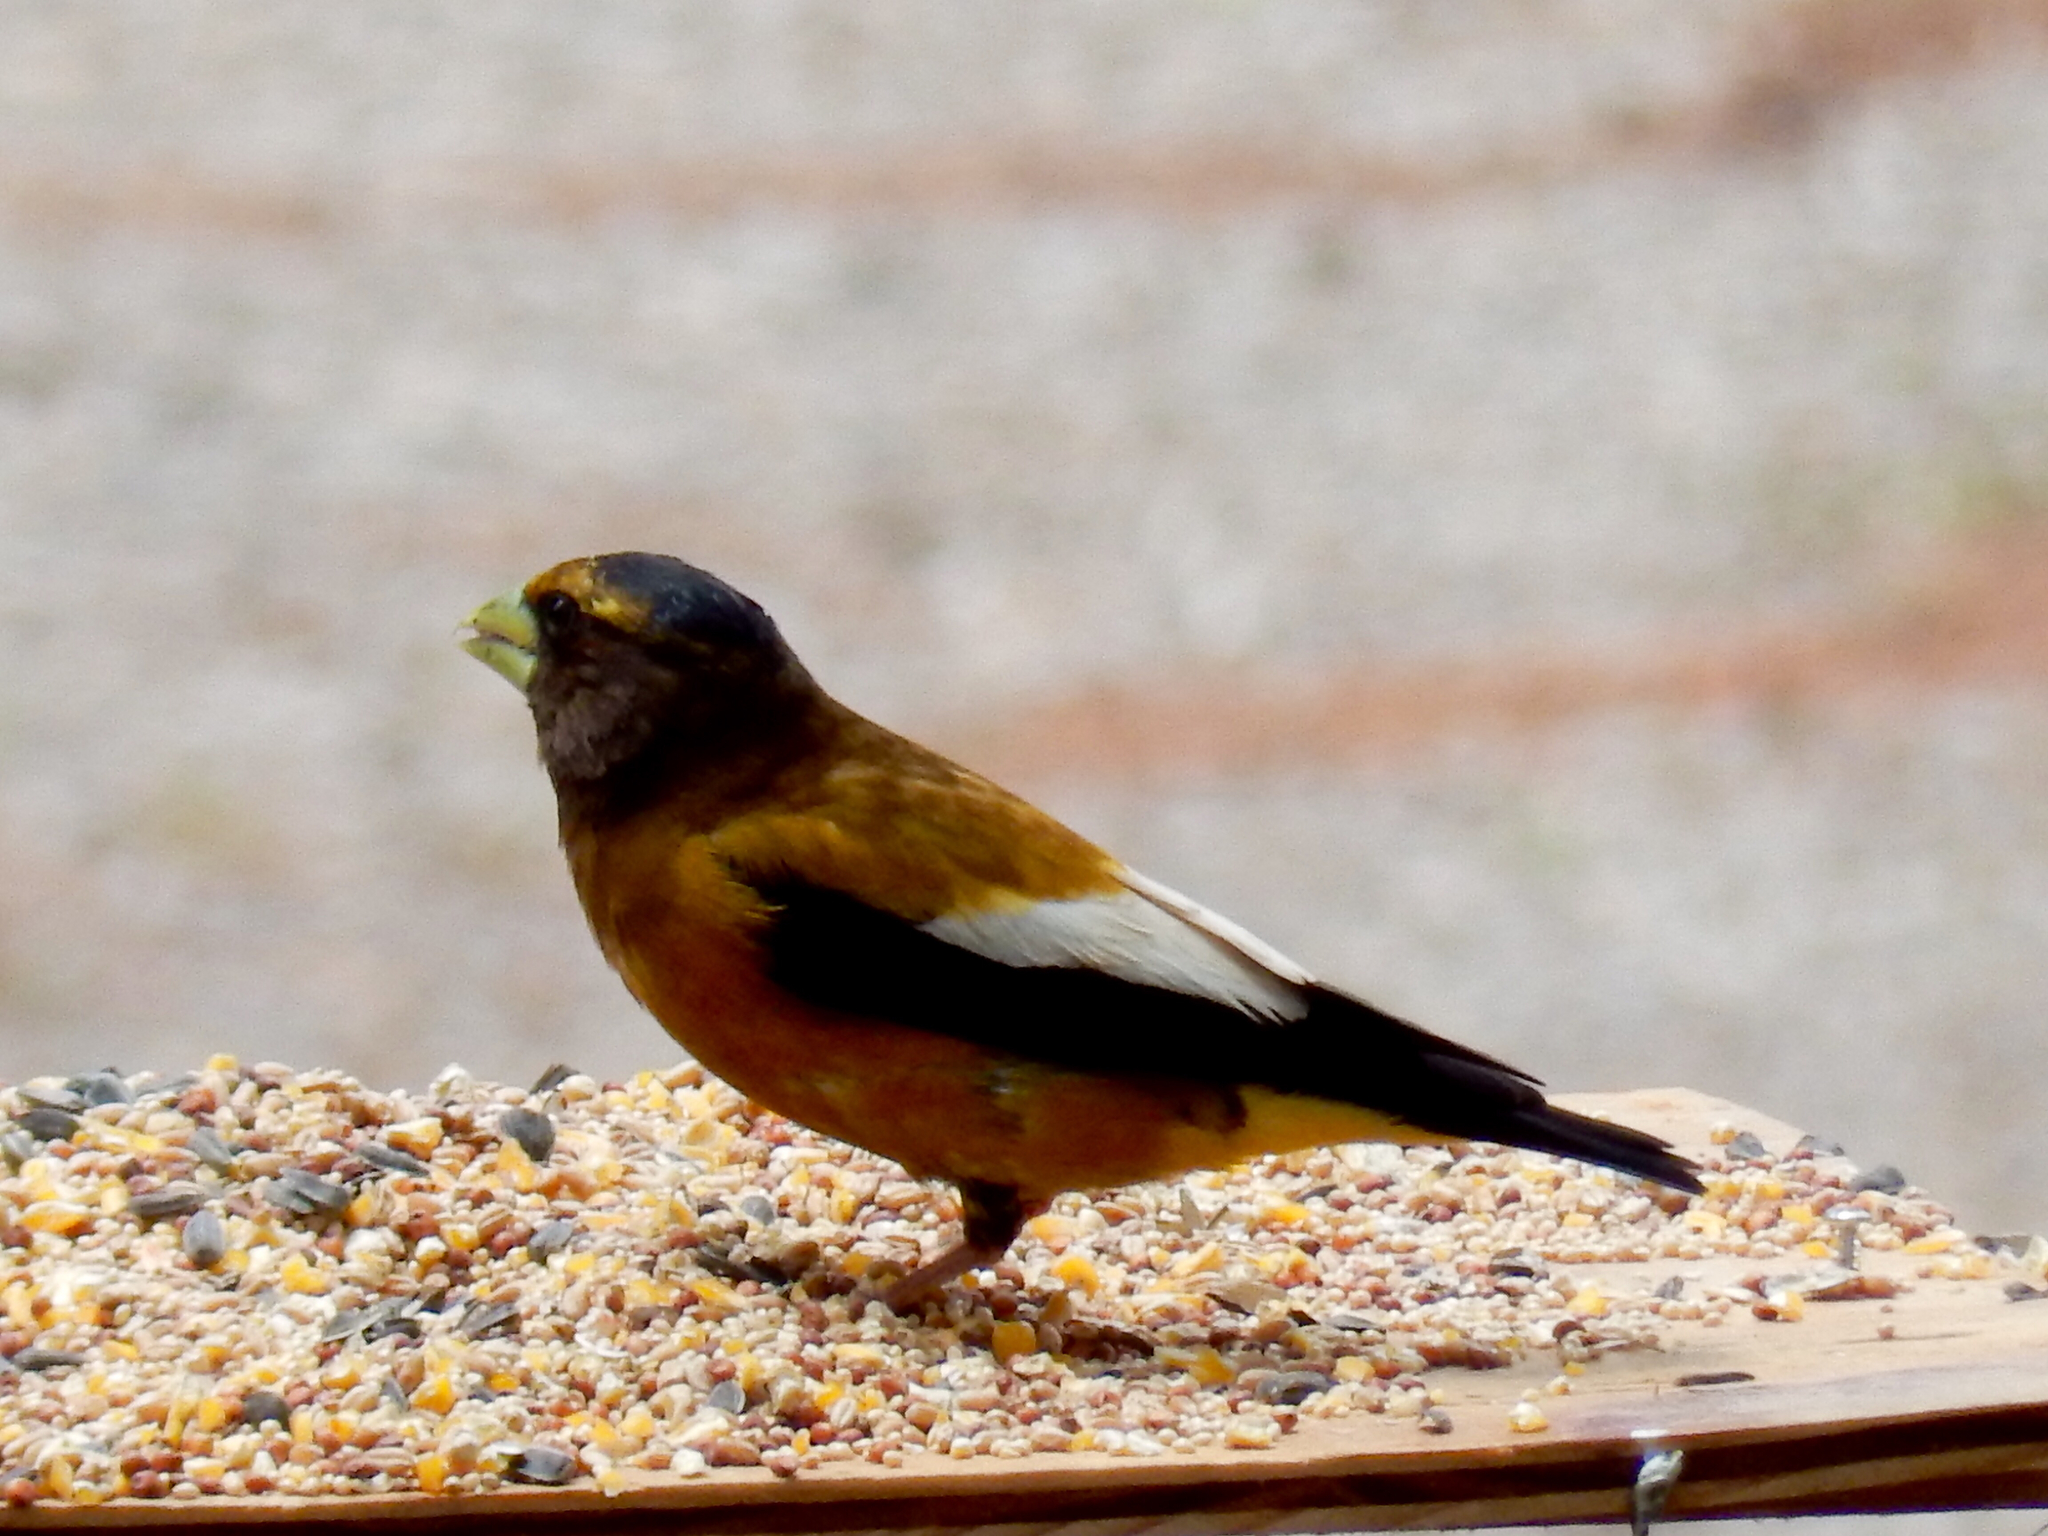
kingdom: Animalia
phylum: Chordata
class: Aves
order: Passeriformes
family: Fringillidae
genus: Hesperiphona
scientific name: Hesperiphona vespertina
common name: Evening grosbeak
